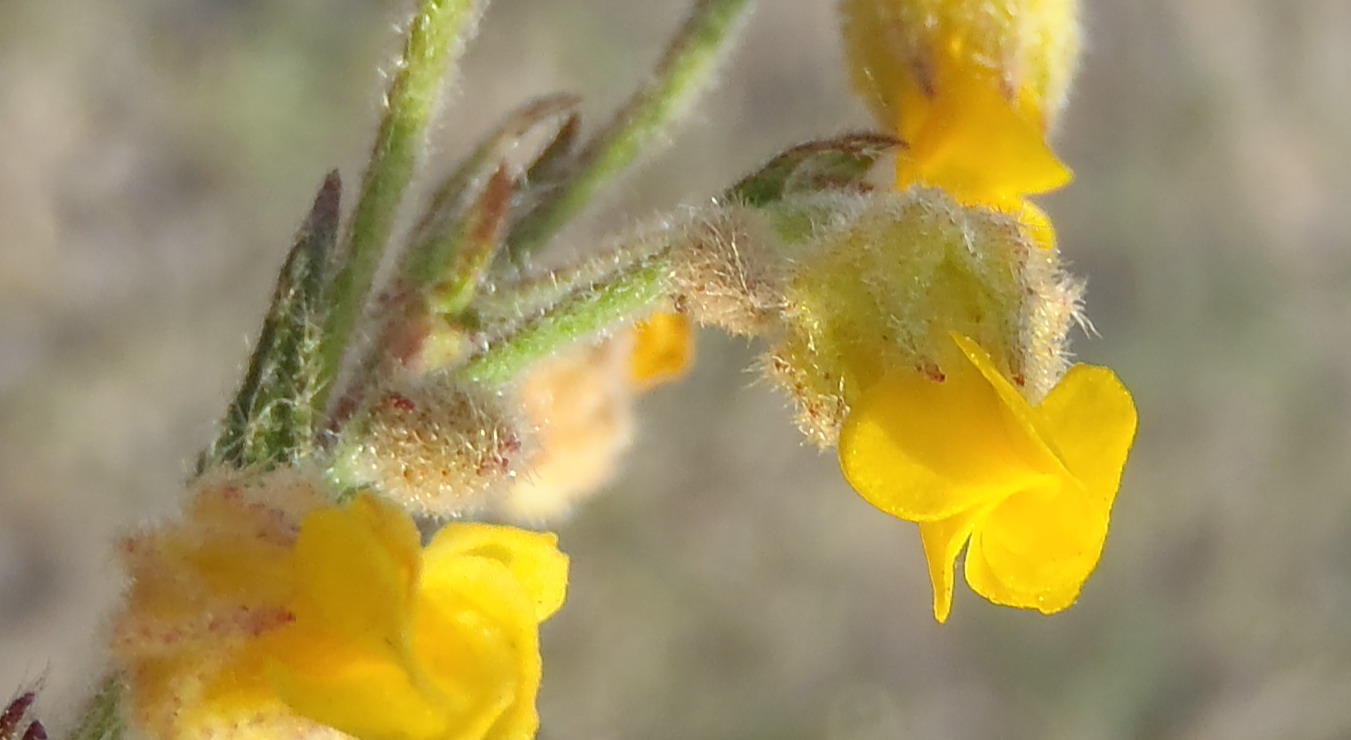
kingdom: Plantae
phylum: Tracheophyta
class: Magnoliopsida
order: Malvales
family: Malvaceae
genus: Hermannia
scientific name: Hermannia stipulacea
